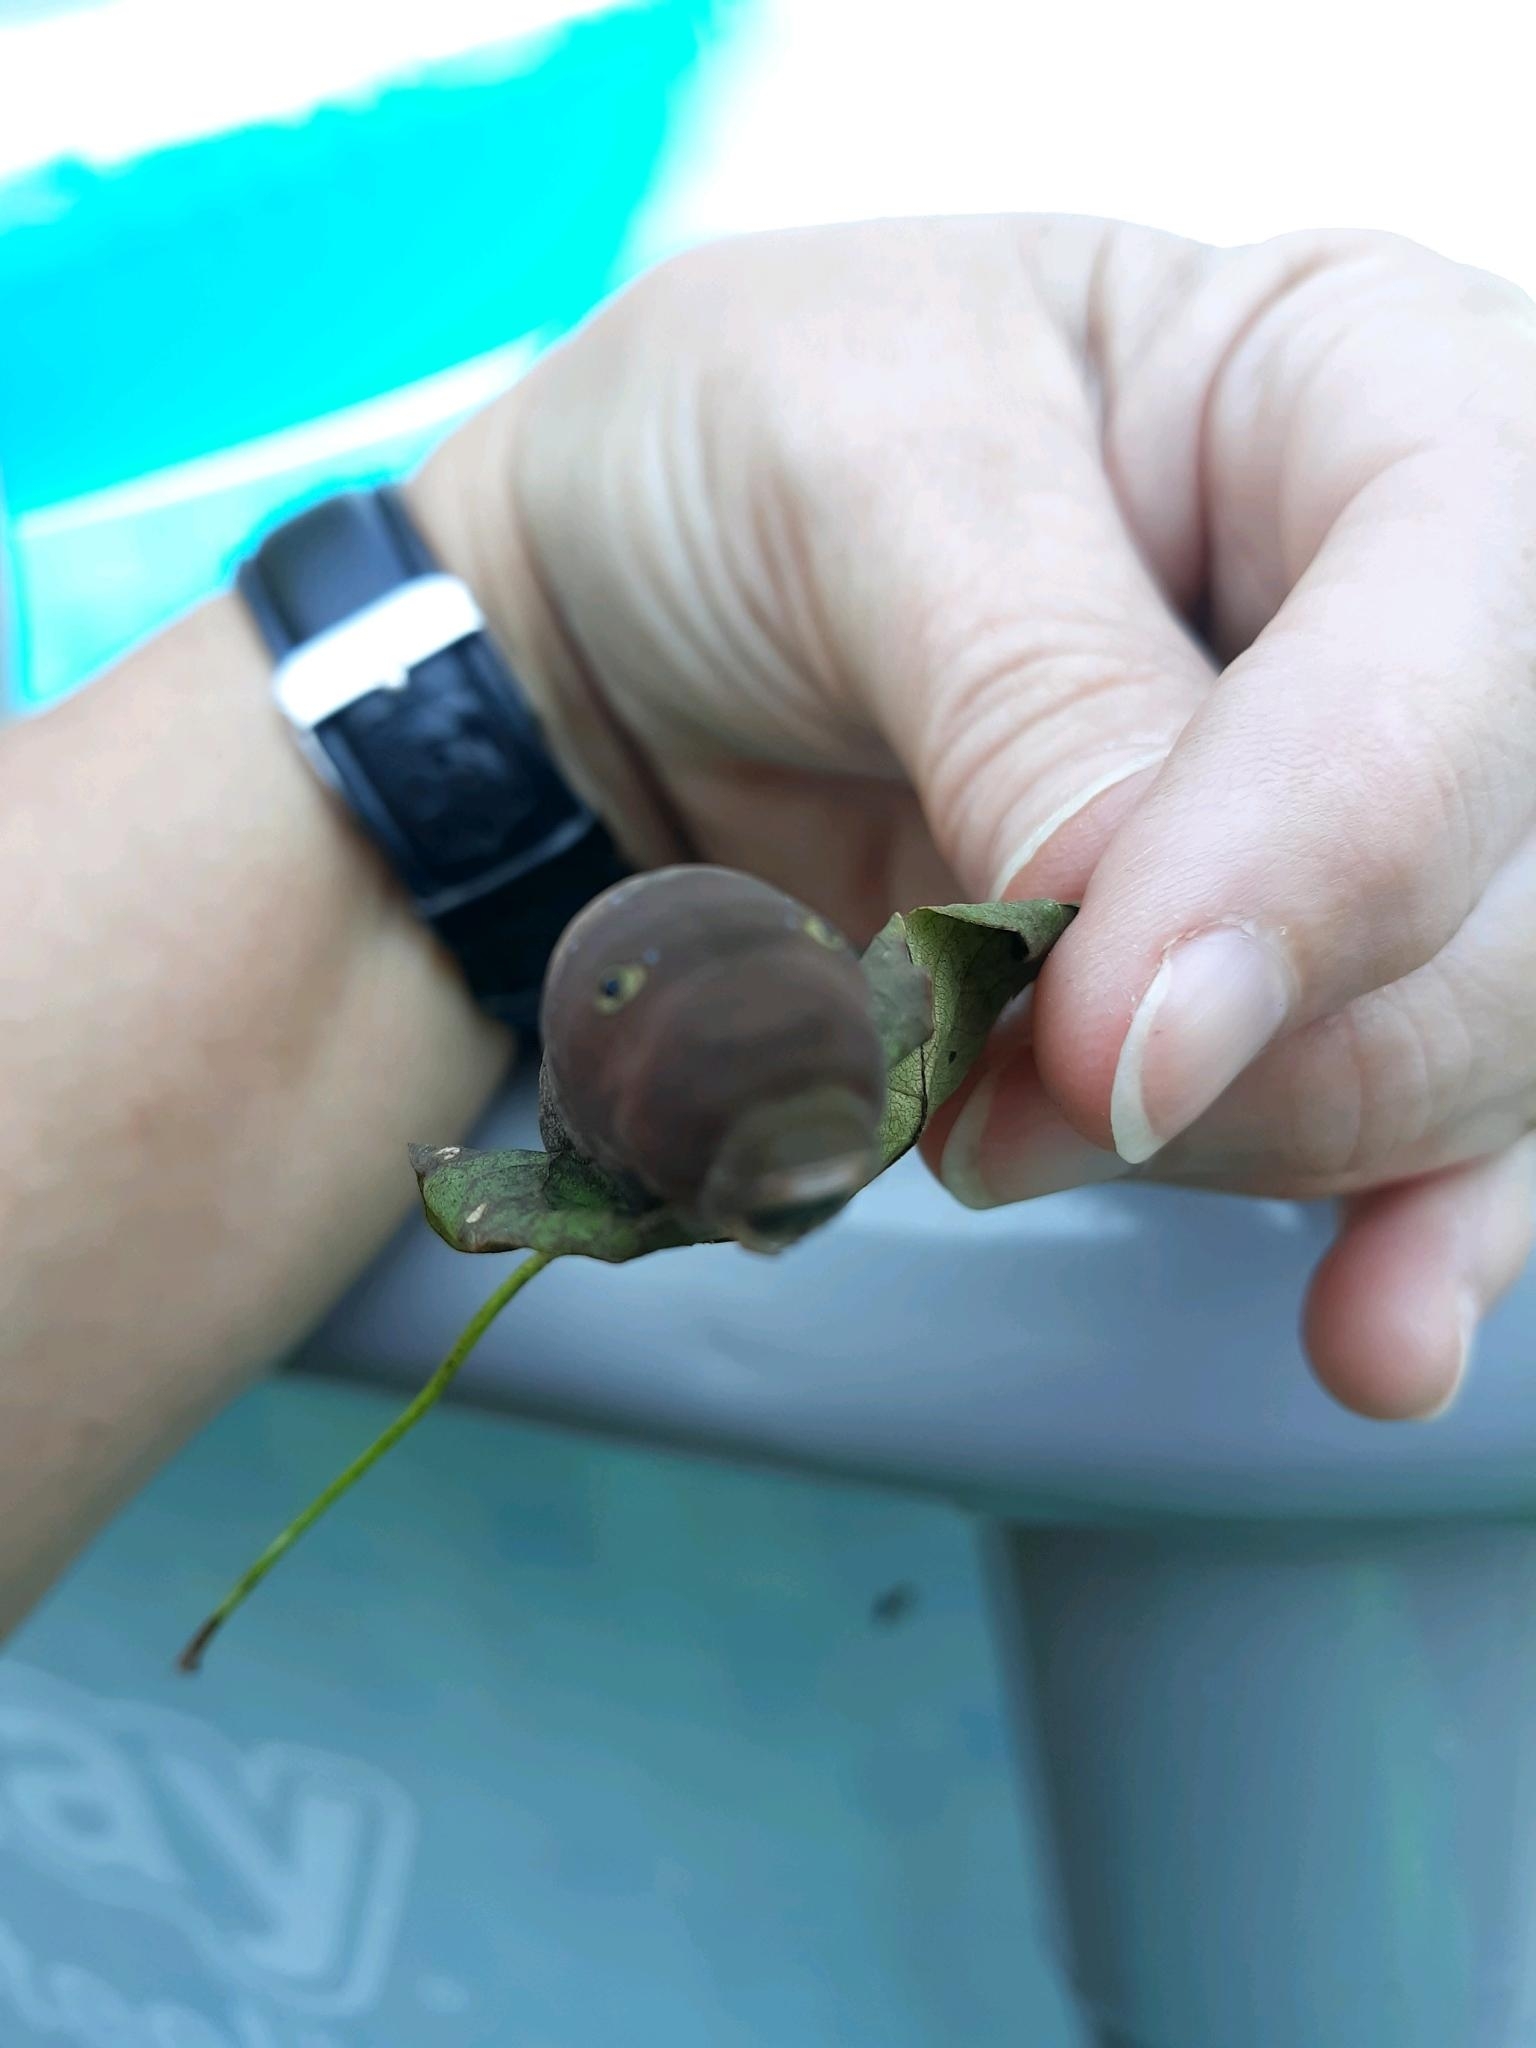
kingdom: Animalia
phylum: Arthropoda
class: Insecta
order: Lepidoptera
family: Papilionidae
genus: Papilio
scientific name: Papilio glaucus
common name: Tiger swallowtail
